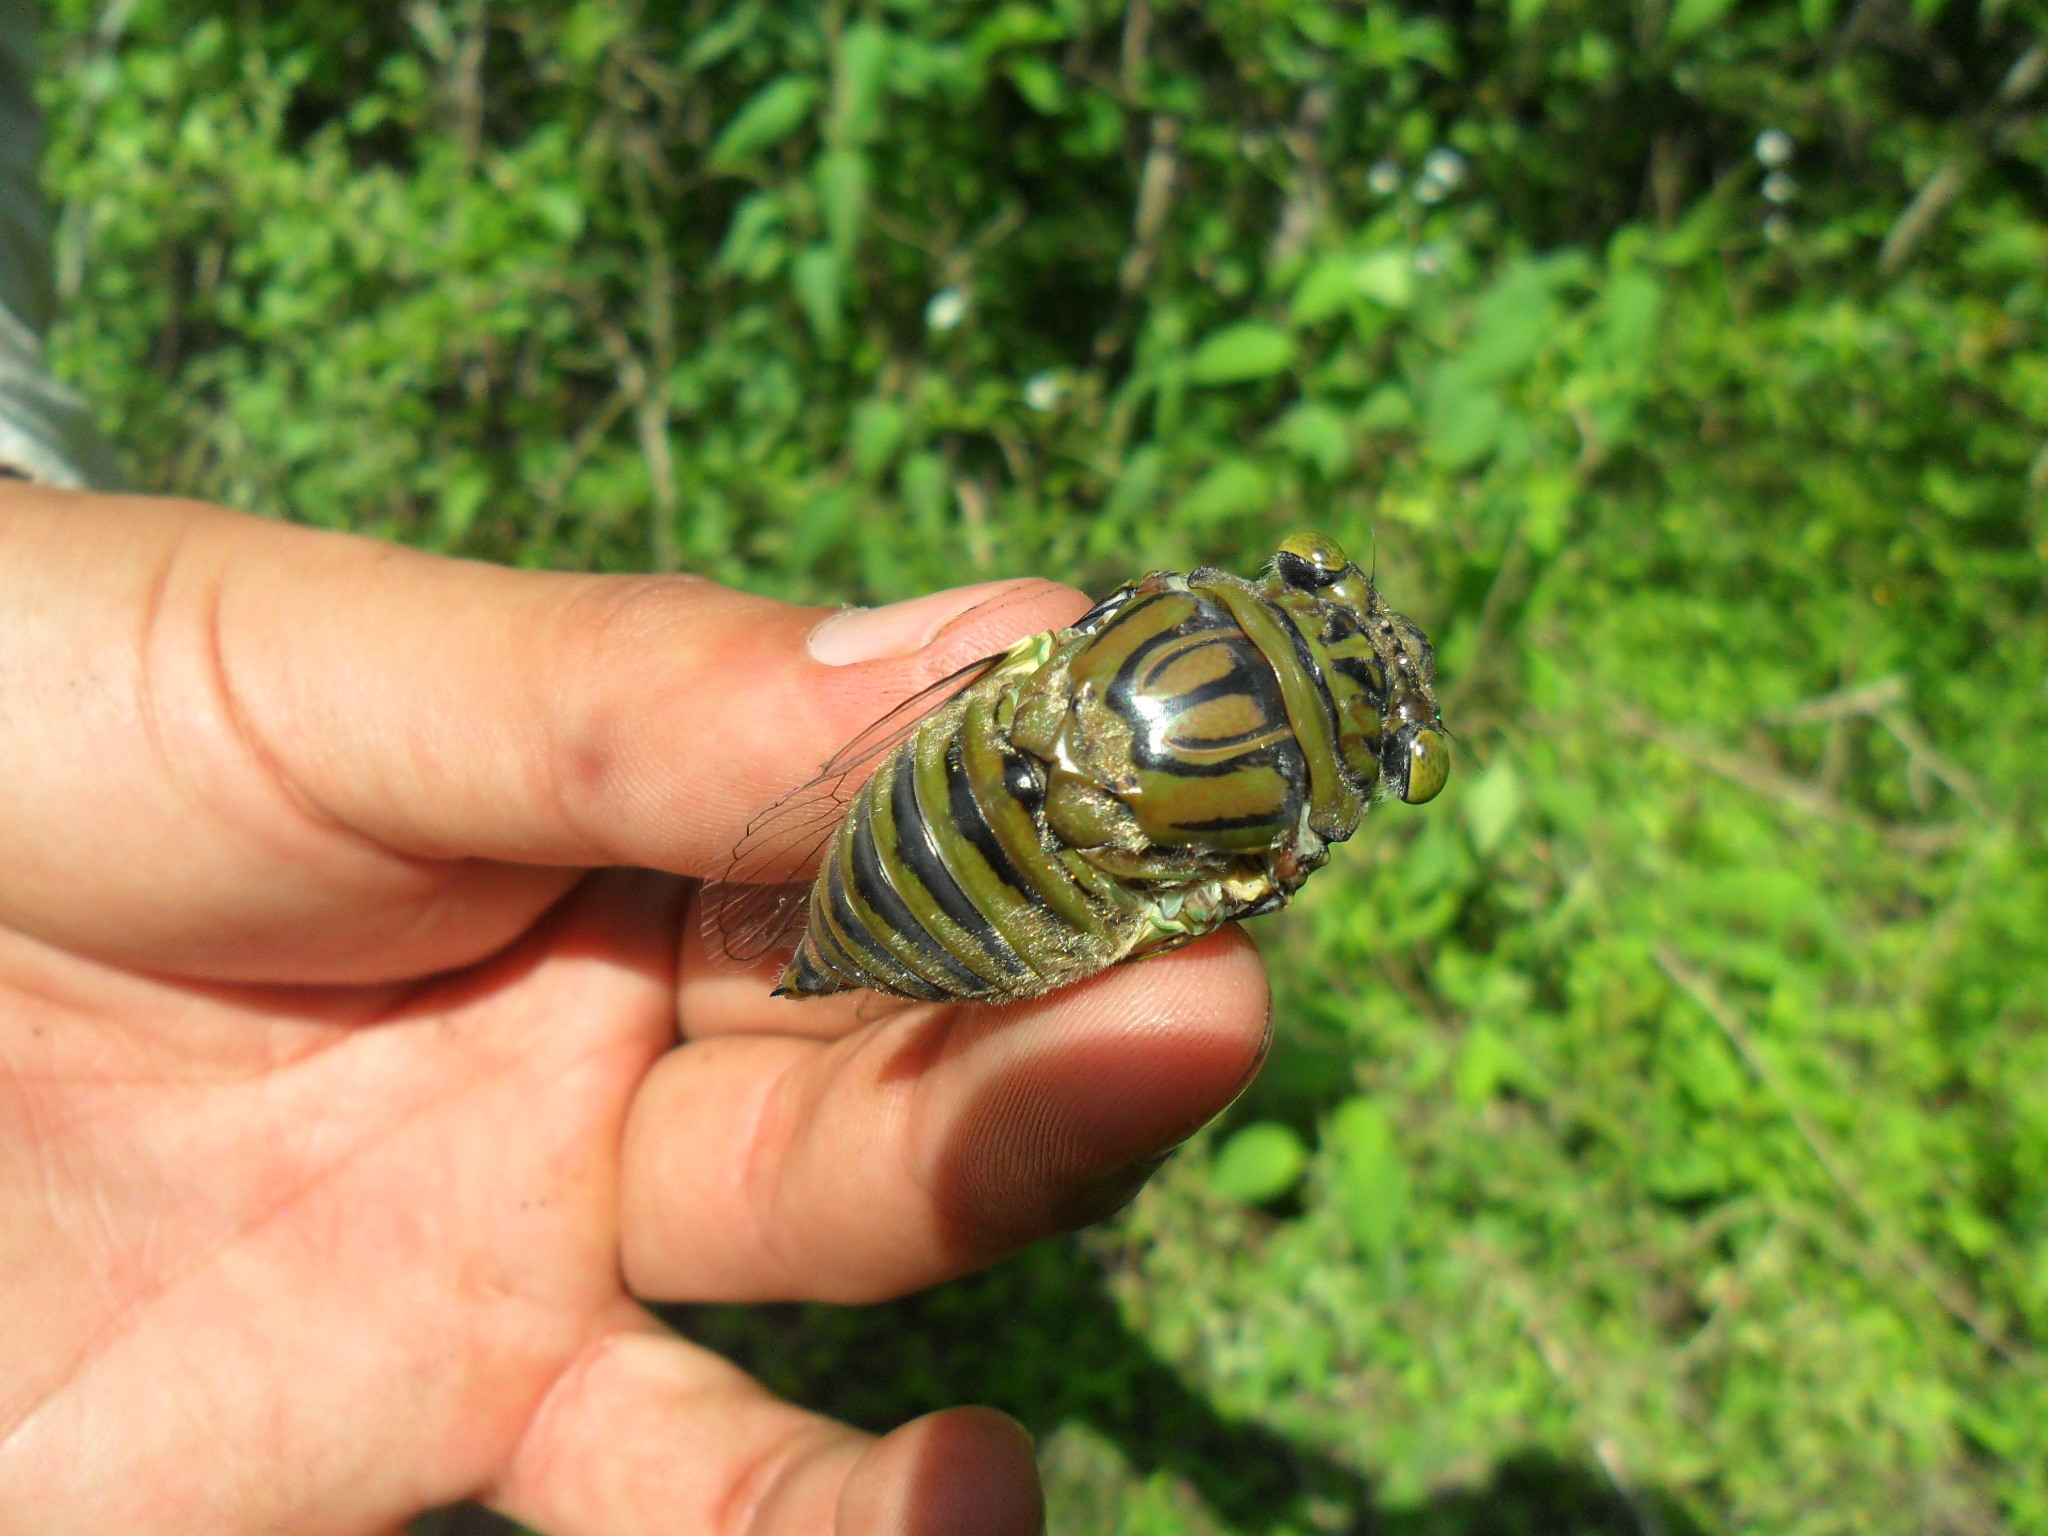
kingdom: Animalia
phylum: Arthropoda
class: Insecta
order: Hemiptera
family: Cicadidae
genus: Quesada
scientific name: Quesada gigas
